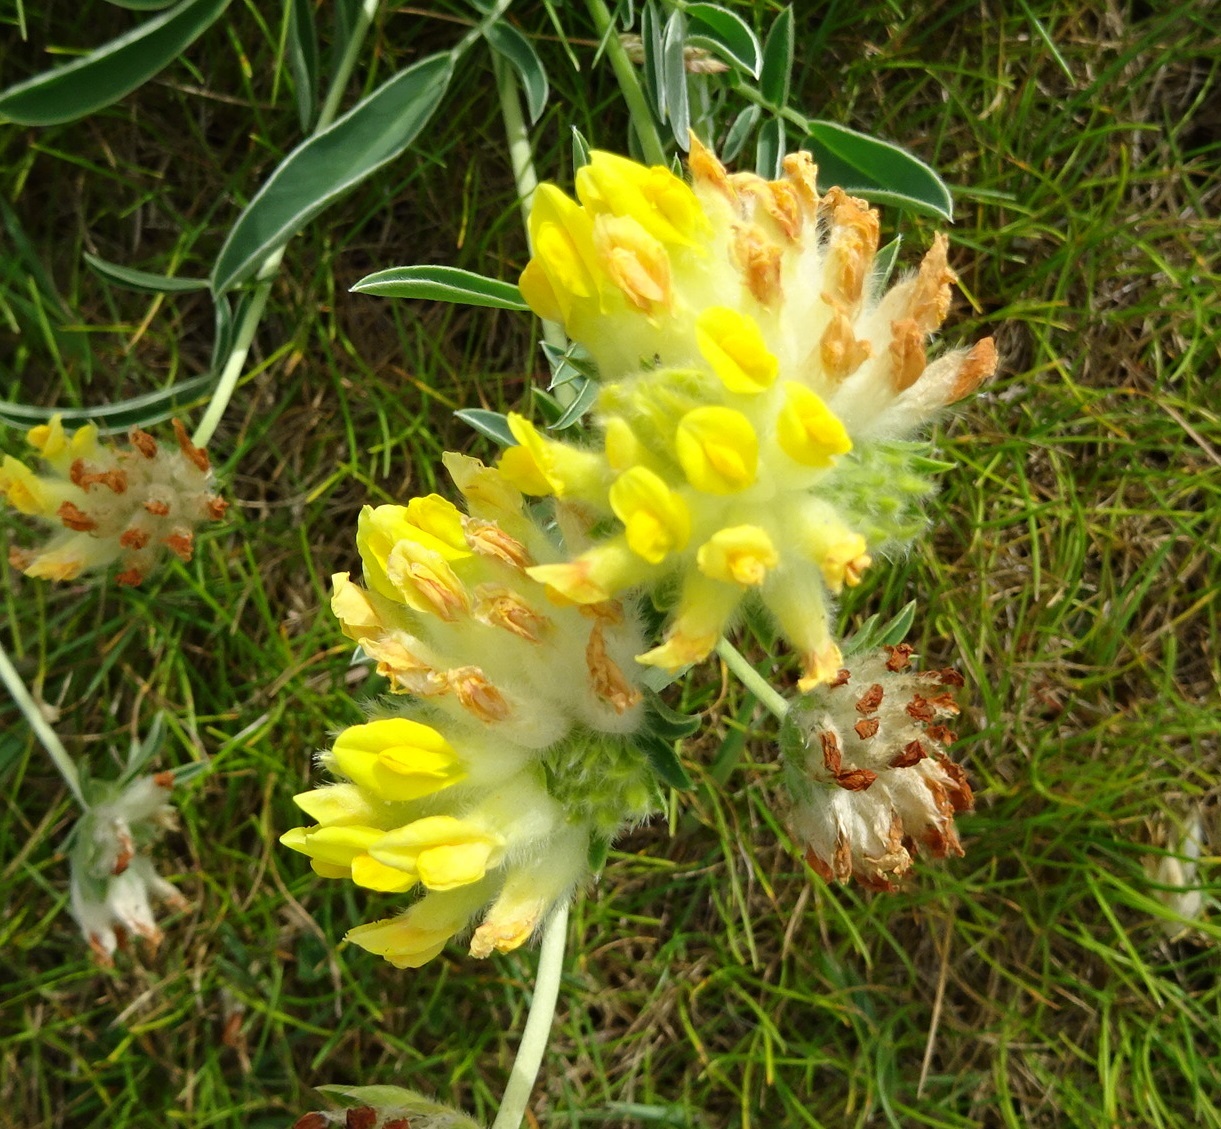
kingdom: Plantae
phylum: Tracheophyta
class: Magnoliopsida
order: Fabales
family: Fabaceae
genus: Anthyllis
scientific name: Anthyllis vulneraria
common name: Kidney vetch
